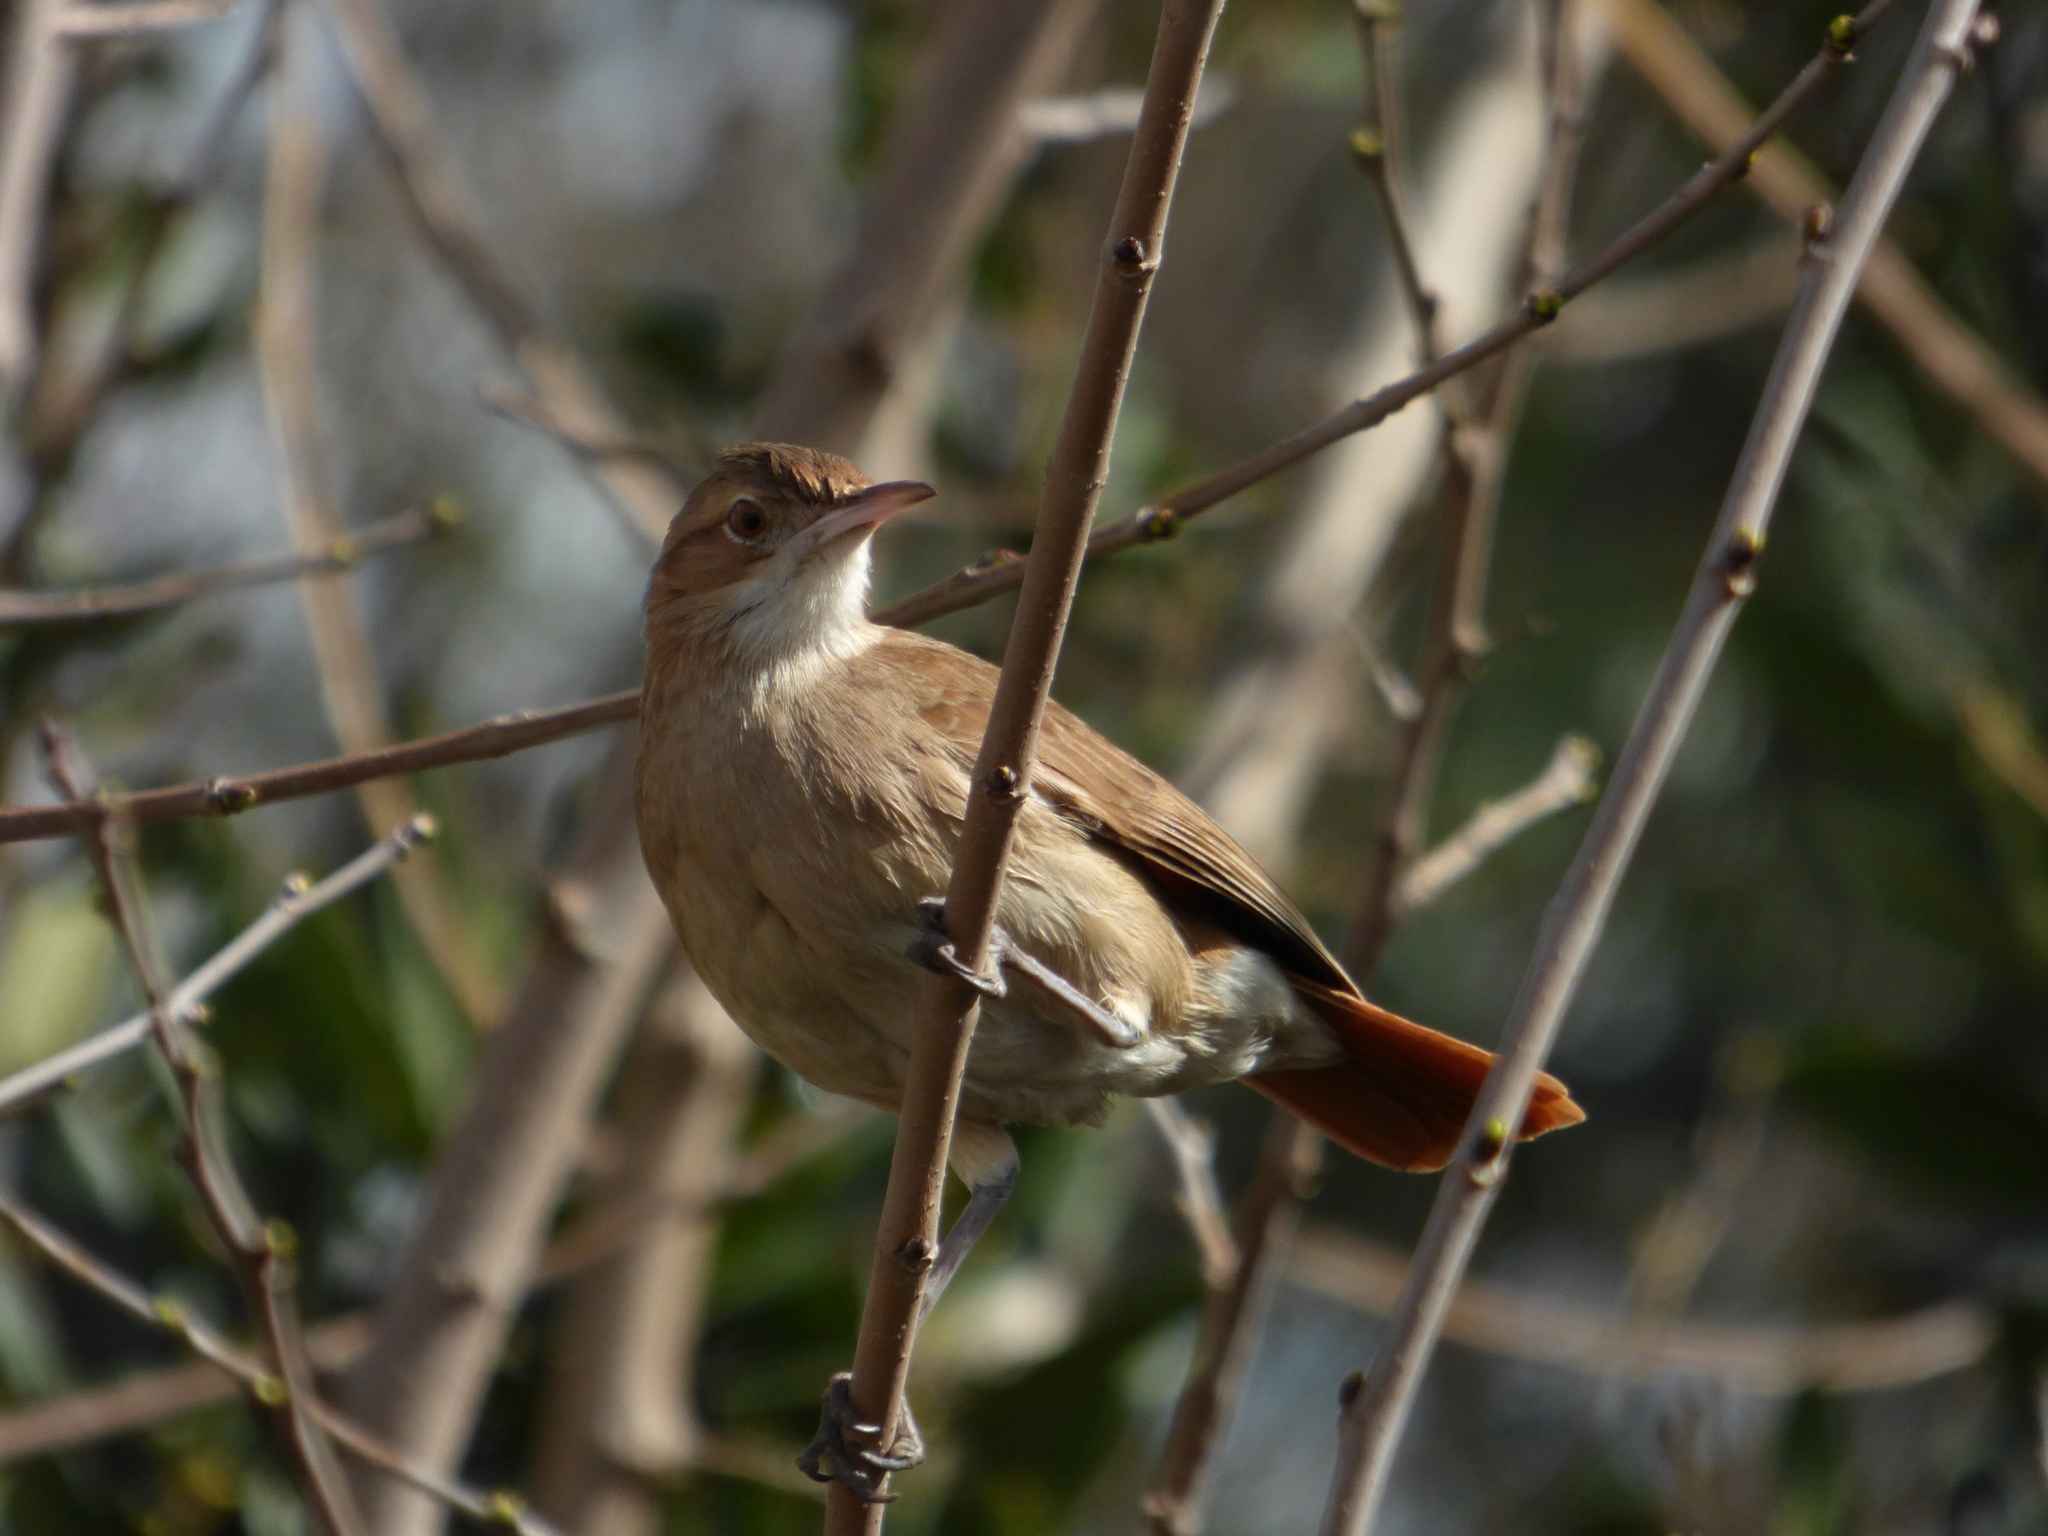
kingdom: Animalia
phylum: Chordata
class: Aves
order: Passeriformes
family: Furnariidae
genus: Furnarius
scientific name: Furnarius rufus
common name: Rufous hornero
